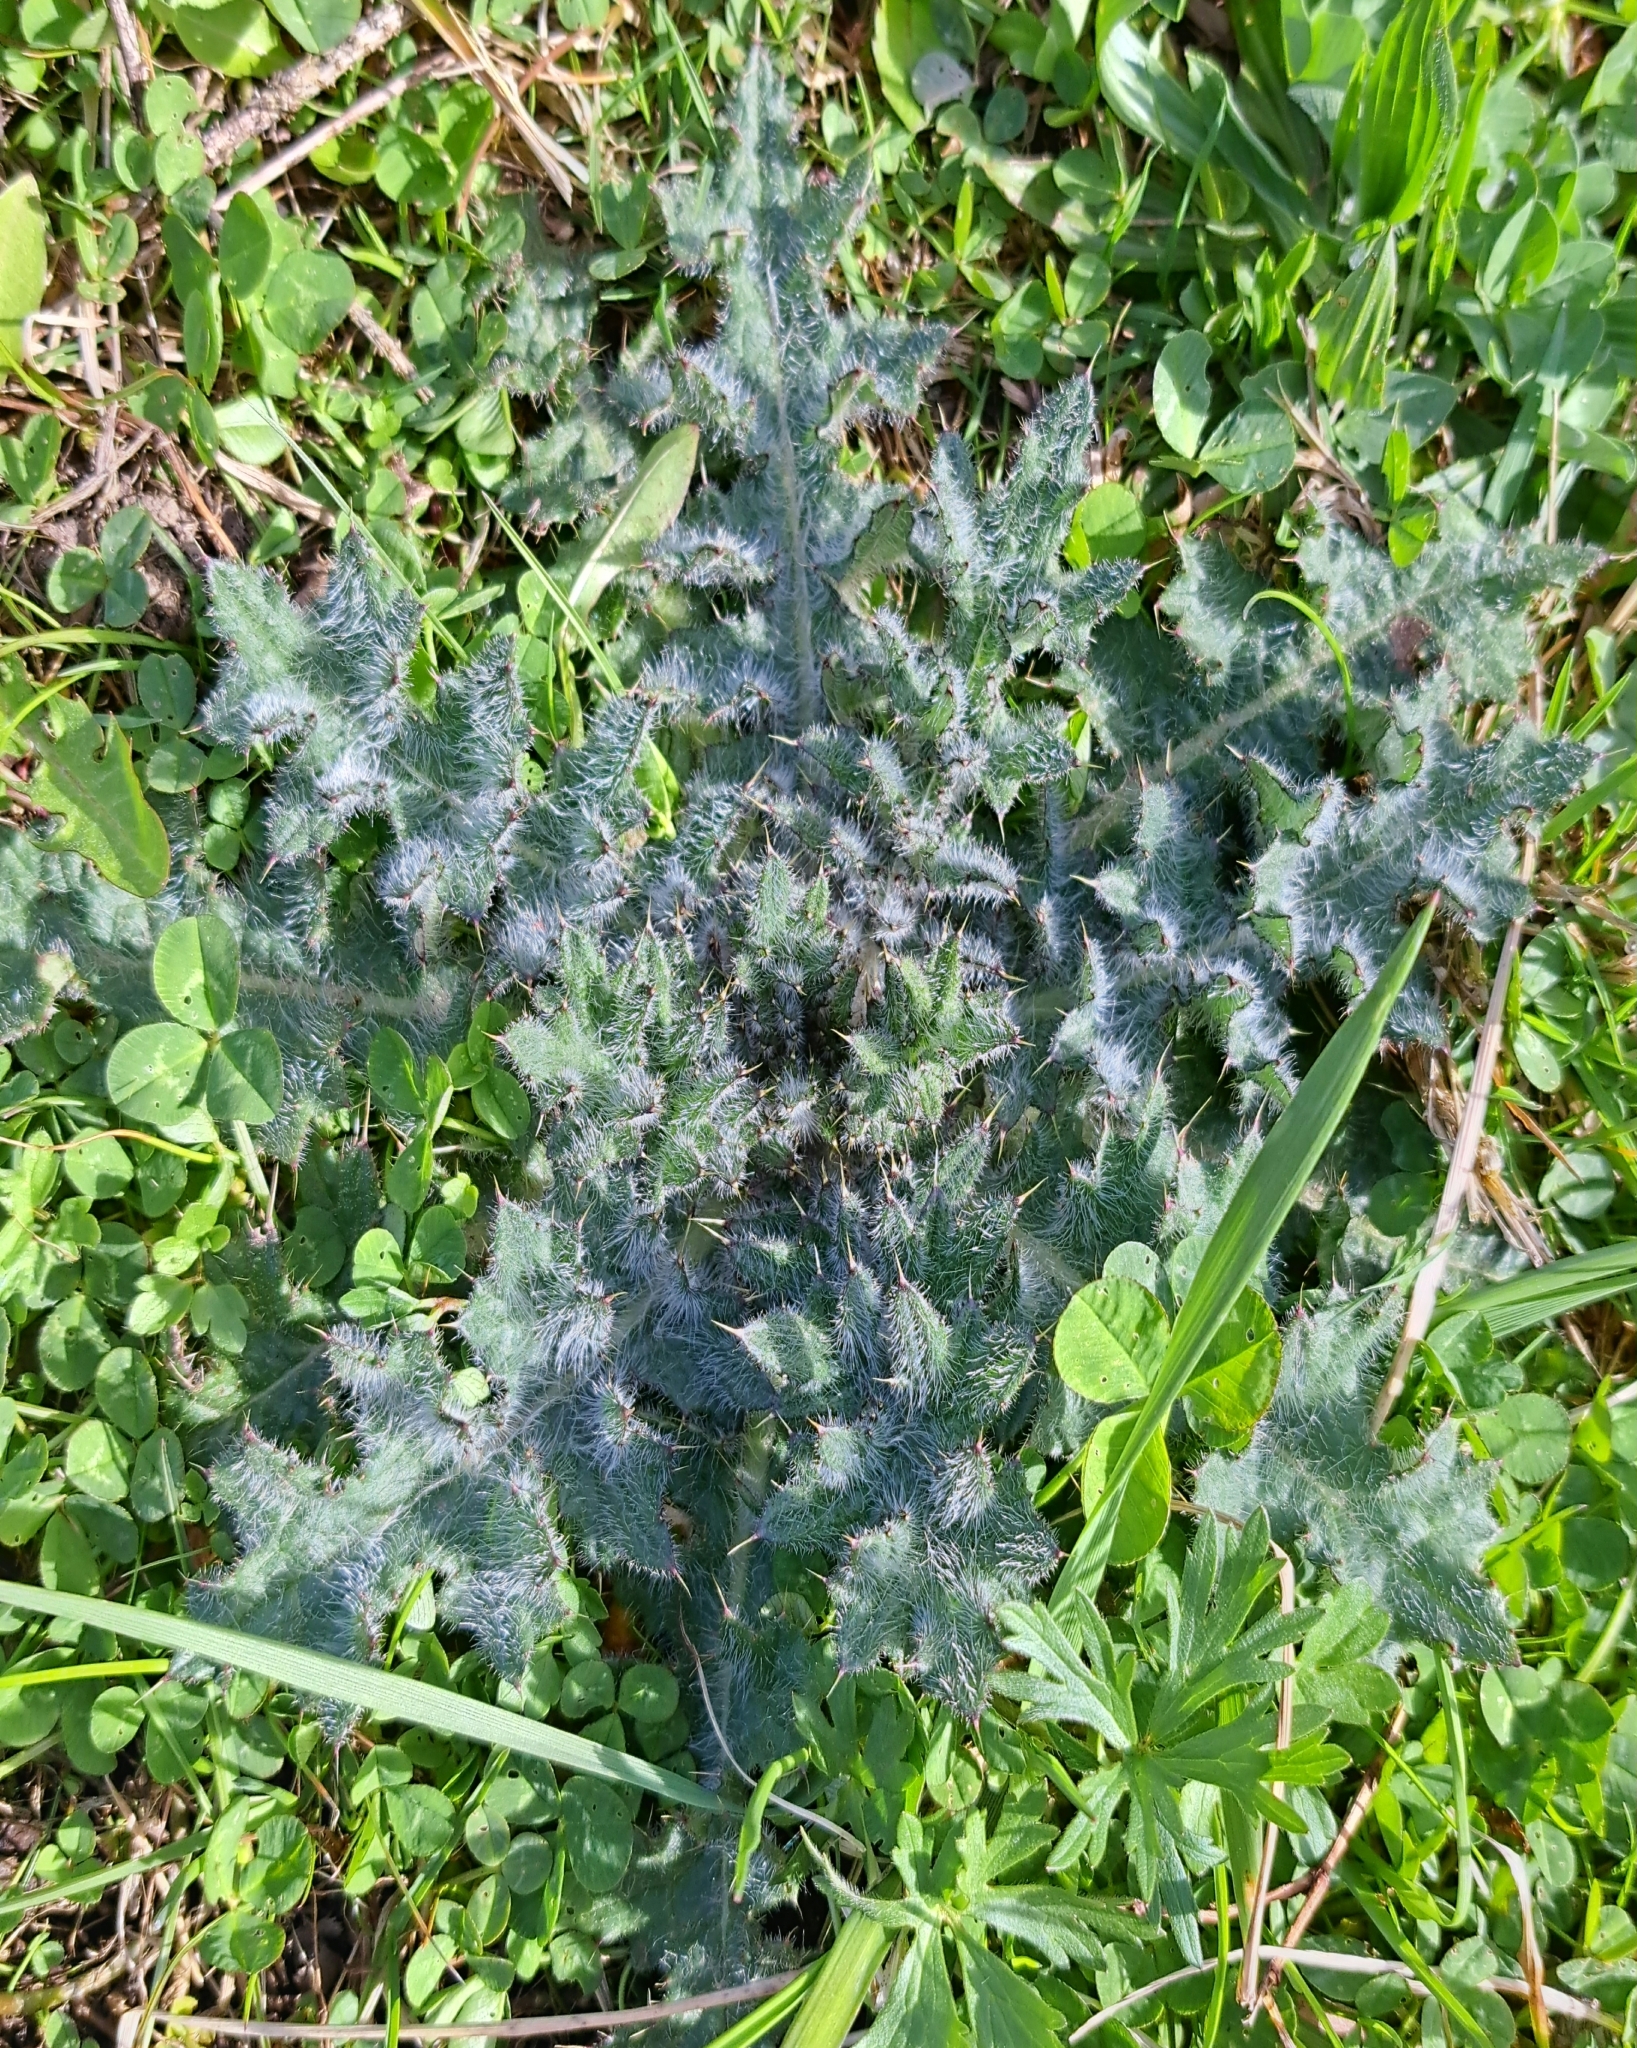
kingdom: Plantae
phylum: Tracheophyta
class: Magnoliopsida
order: Asterales
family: Asteraceae
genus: Cirsium
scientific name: Cirsium vulgare
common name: Bull thistle
